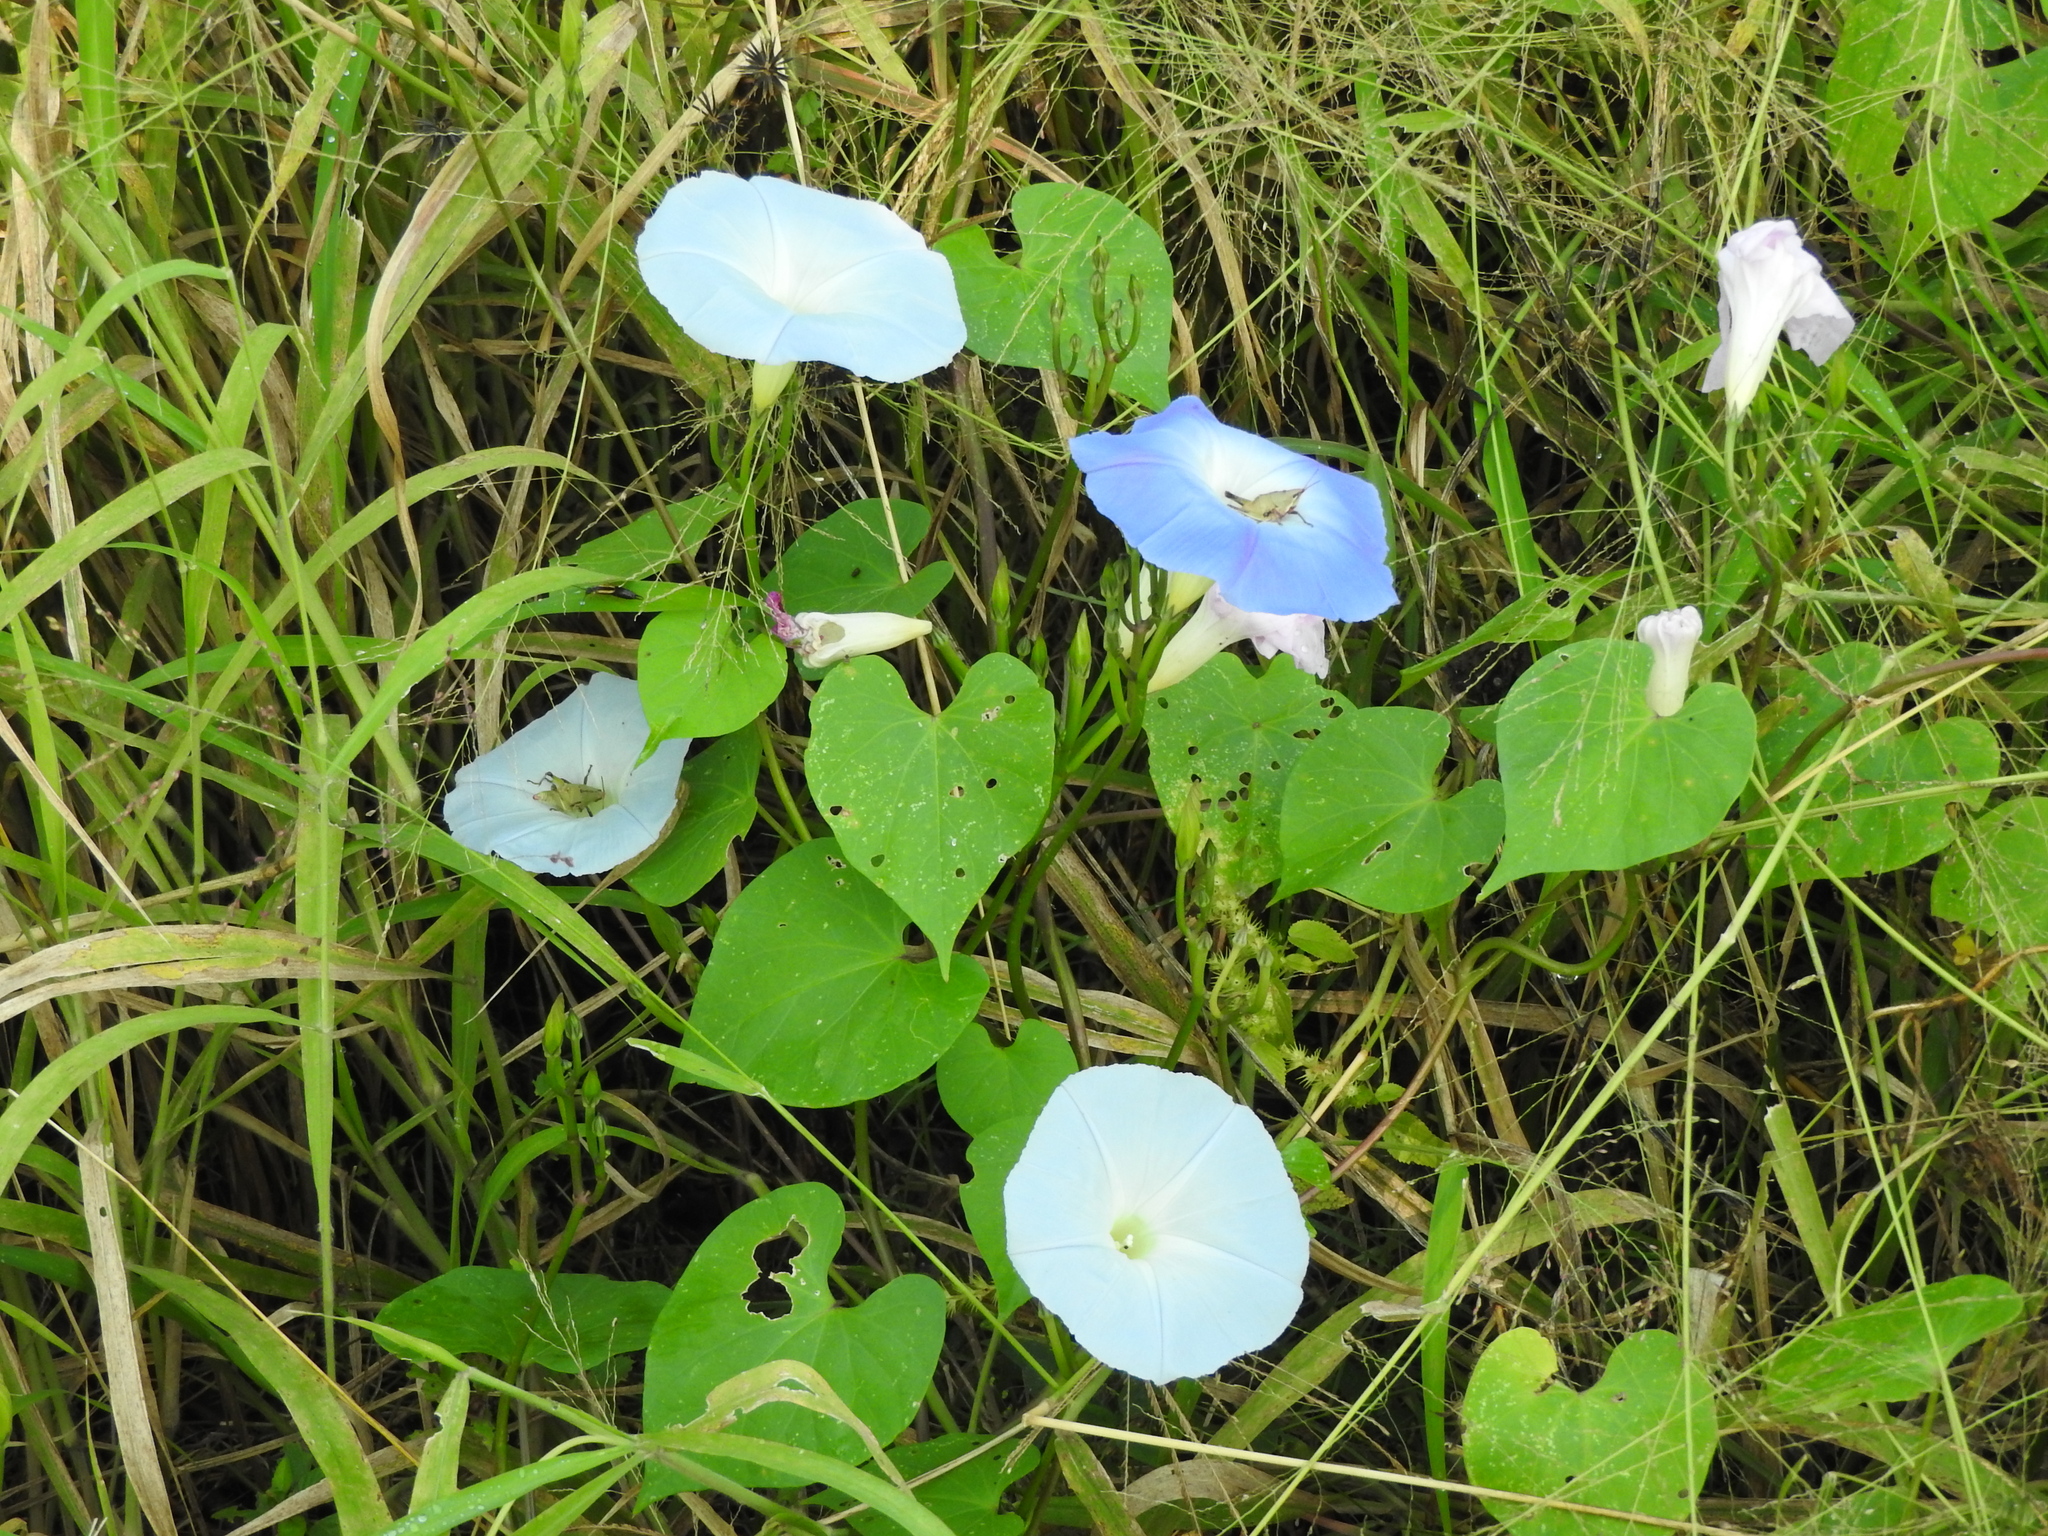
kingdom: Plantae
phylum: Tracheophyta
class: Magnoliopsida
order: Solanales
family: Convolvulaceae
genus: Ipomoea
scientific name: Ipomoea tricolor
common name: Morning-glory
